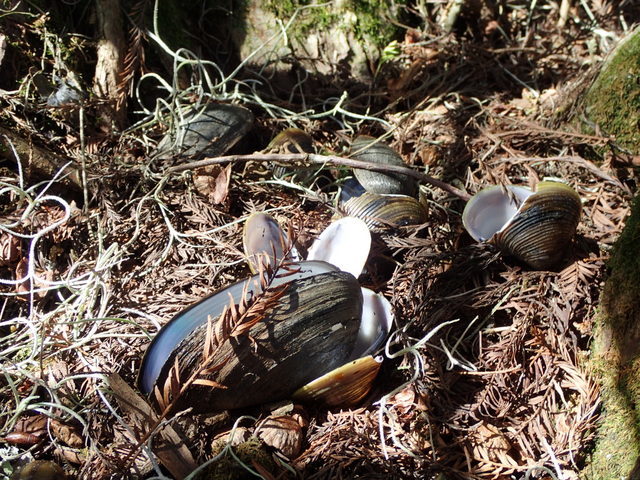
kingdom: Animalia
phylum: Mollusca
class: Bivalvia
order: Venerida
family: Cyrenidae
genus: Corbicula
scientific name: Corbicula fluminea
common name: Asian clam
